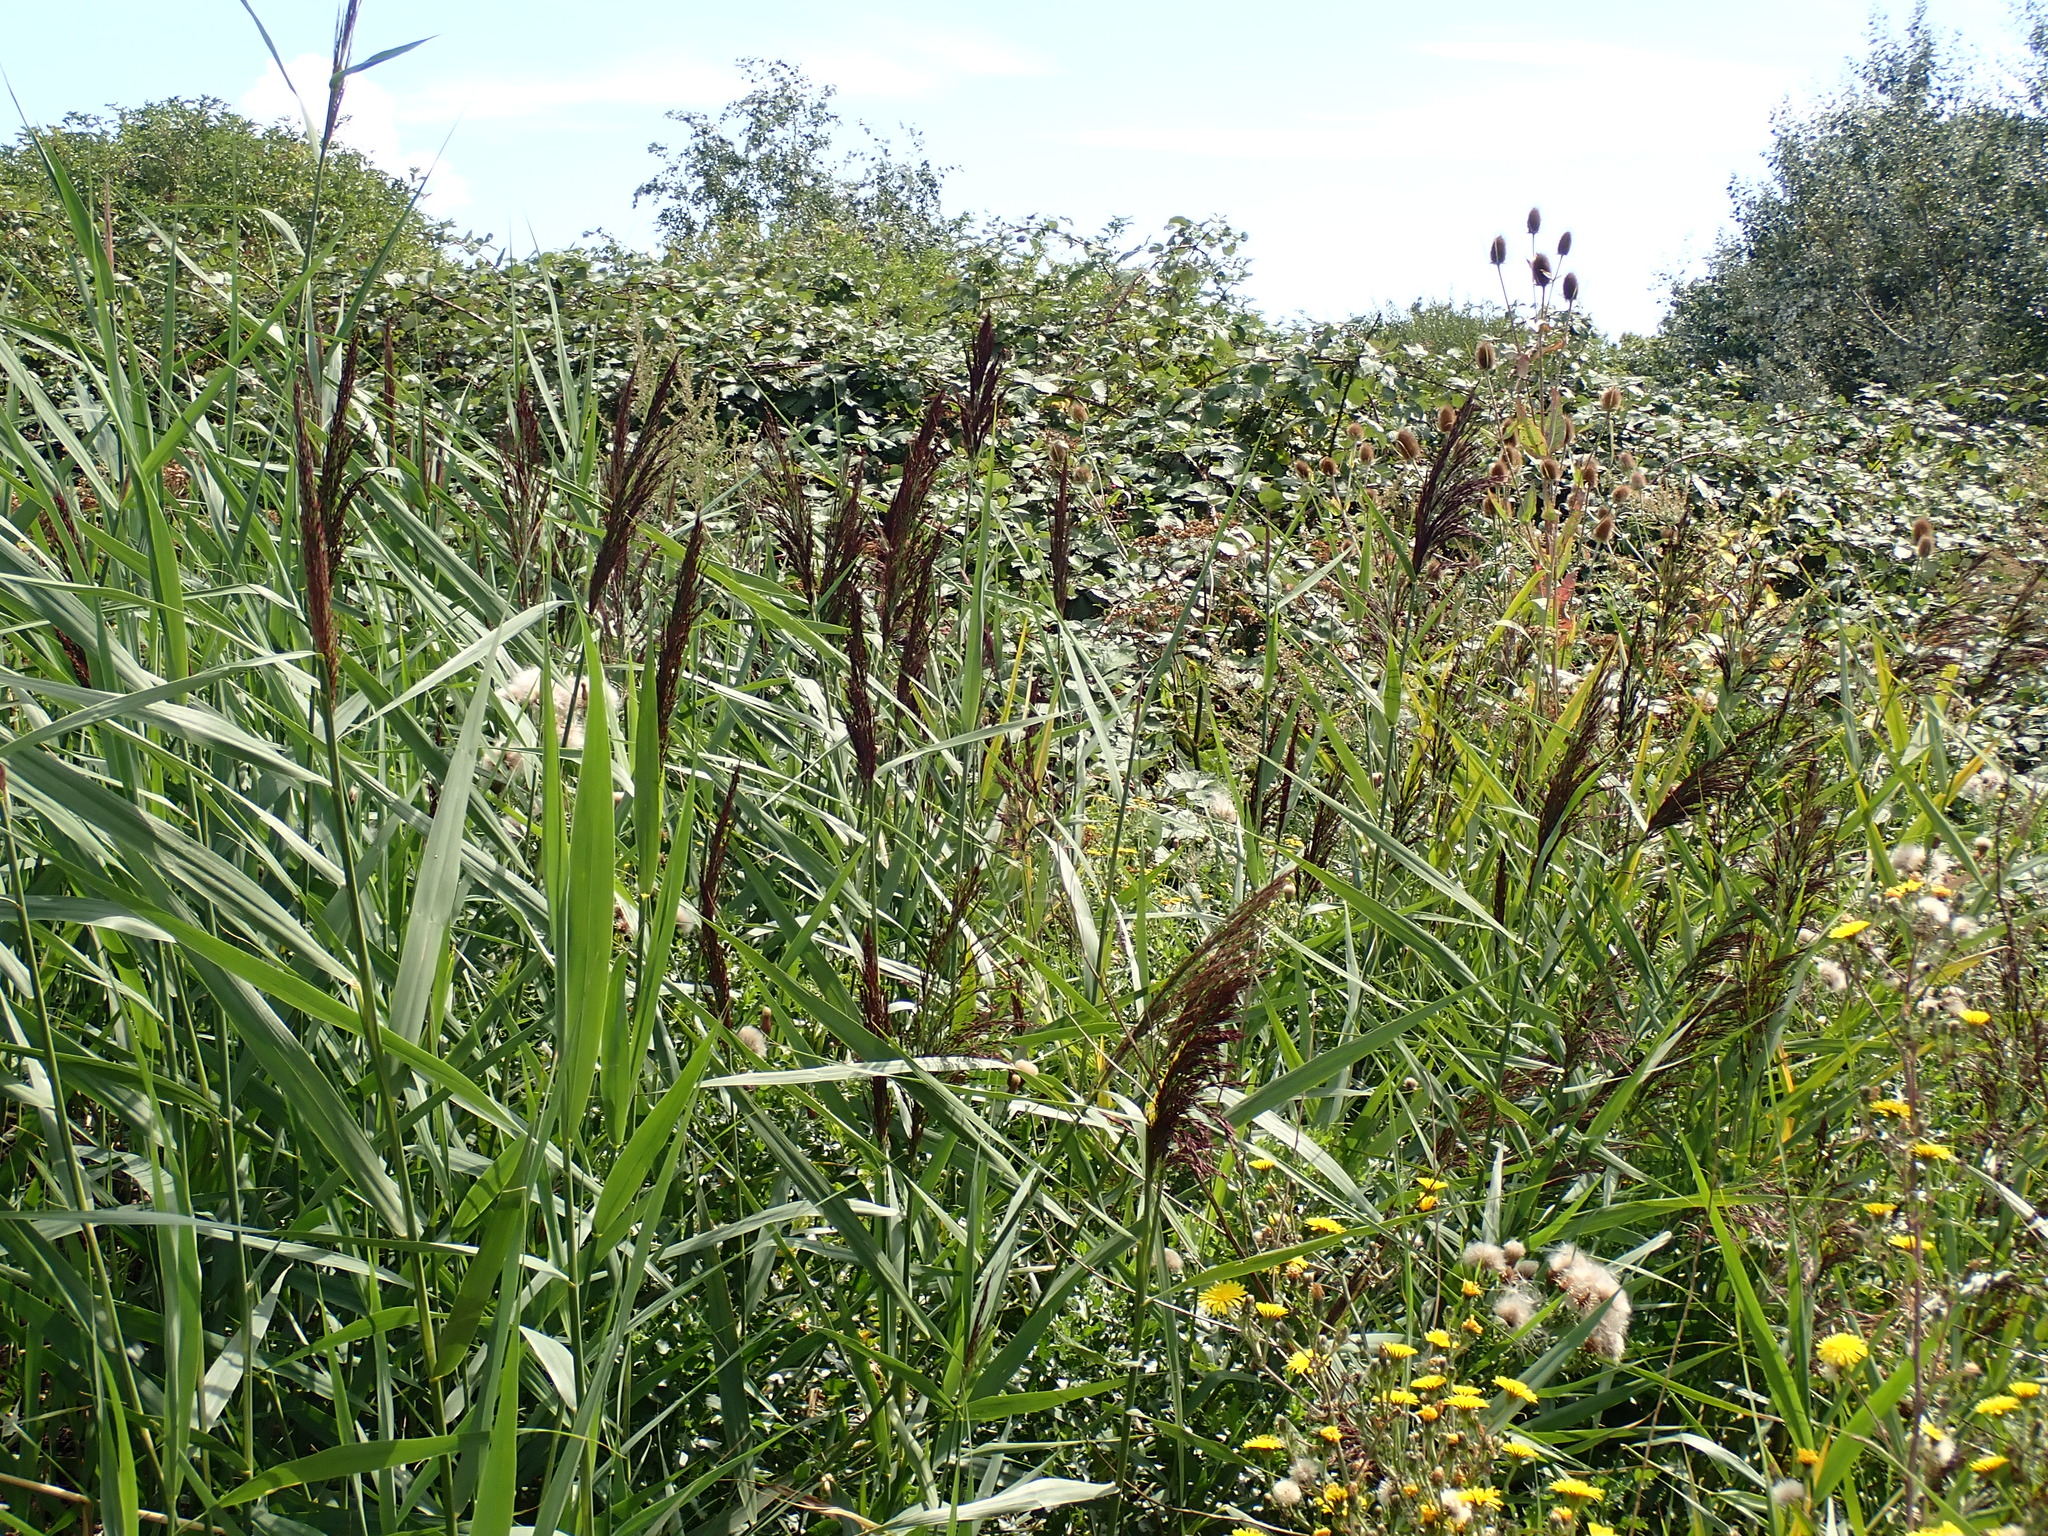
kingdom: Plantae
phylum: Tracheophyta
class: Liliopsida
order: Poales
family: Poaceae
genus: Phragmites
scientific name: Phragmites australis
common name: Common reed
